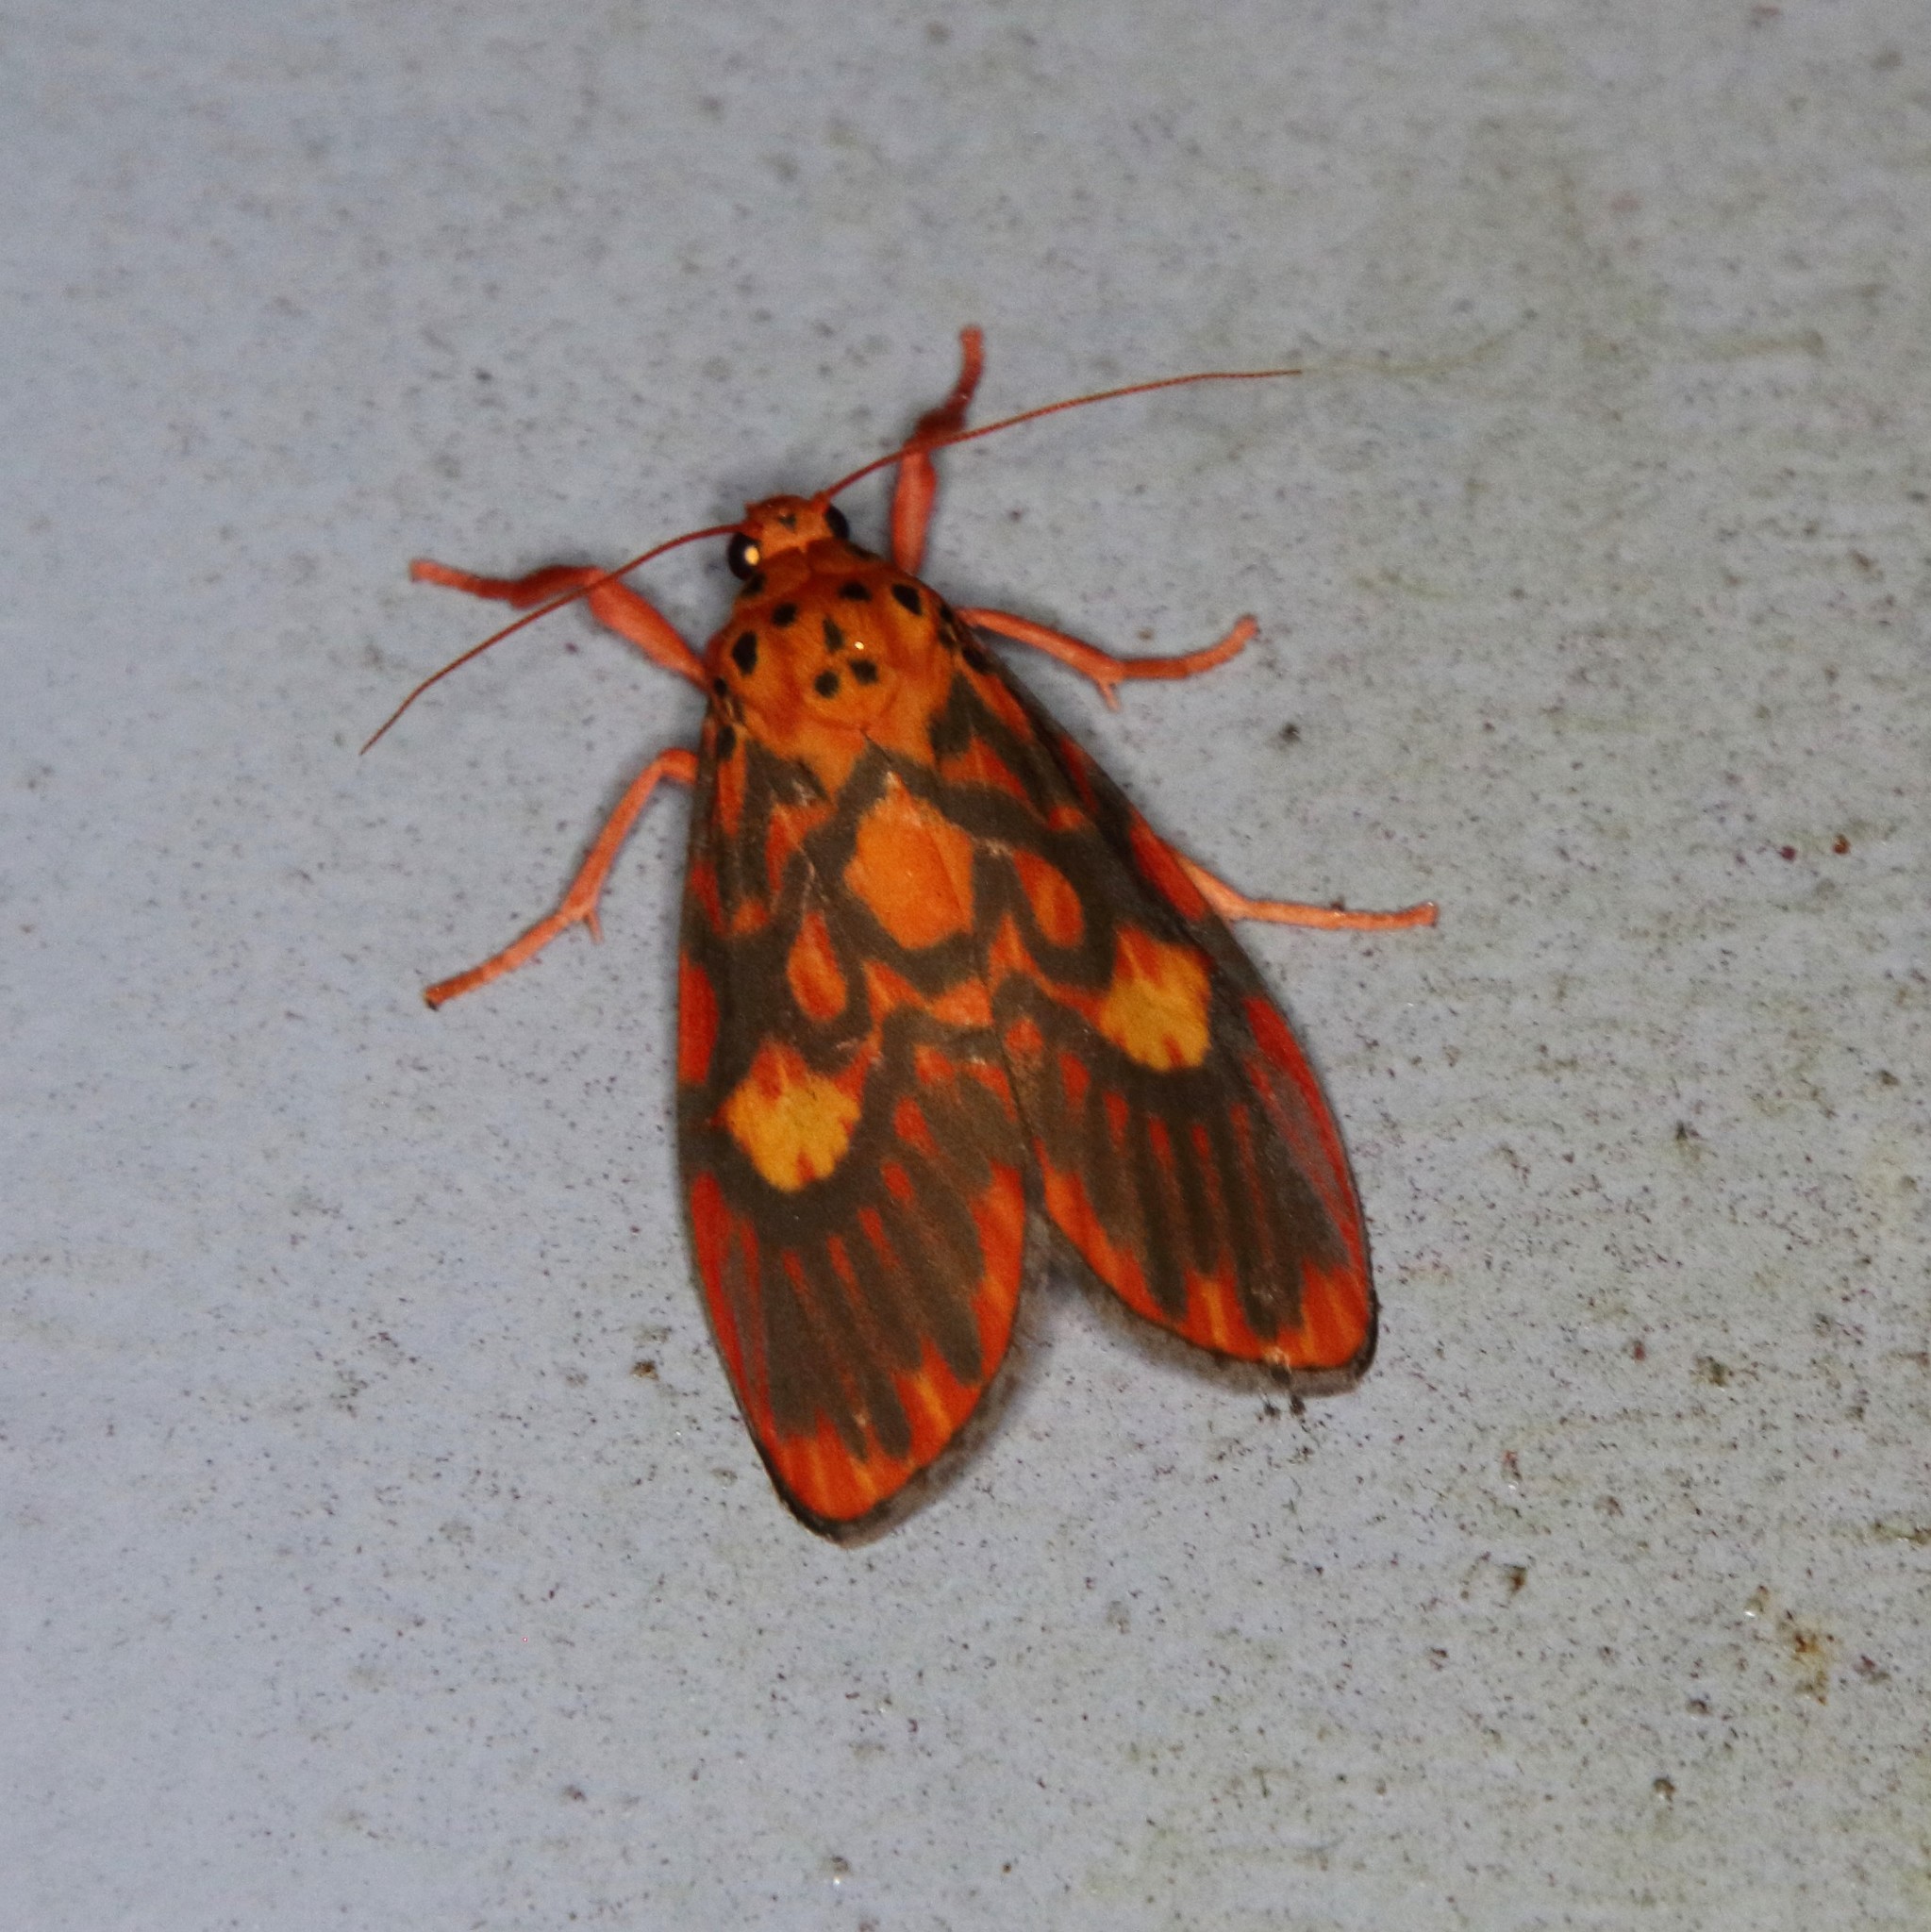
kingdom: Animalia
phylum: Arthropoda
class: Insecta
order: Lepidoptera
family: Erebidae
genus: Ammatho
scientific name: Ammatho cuneonotatus
